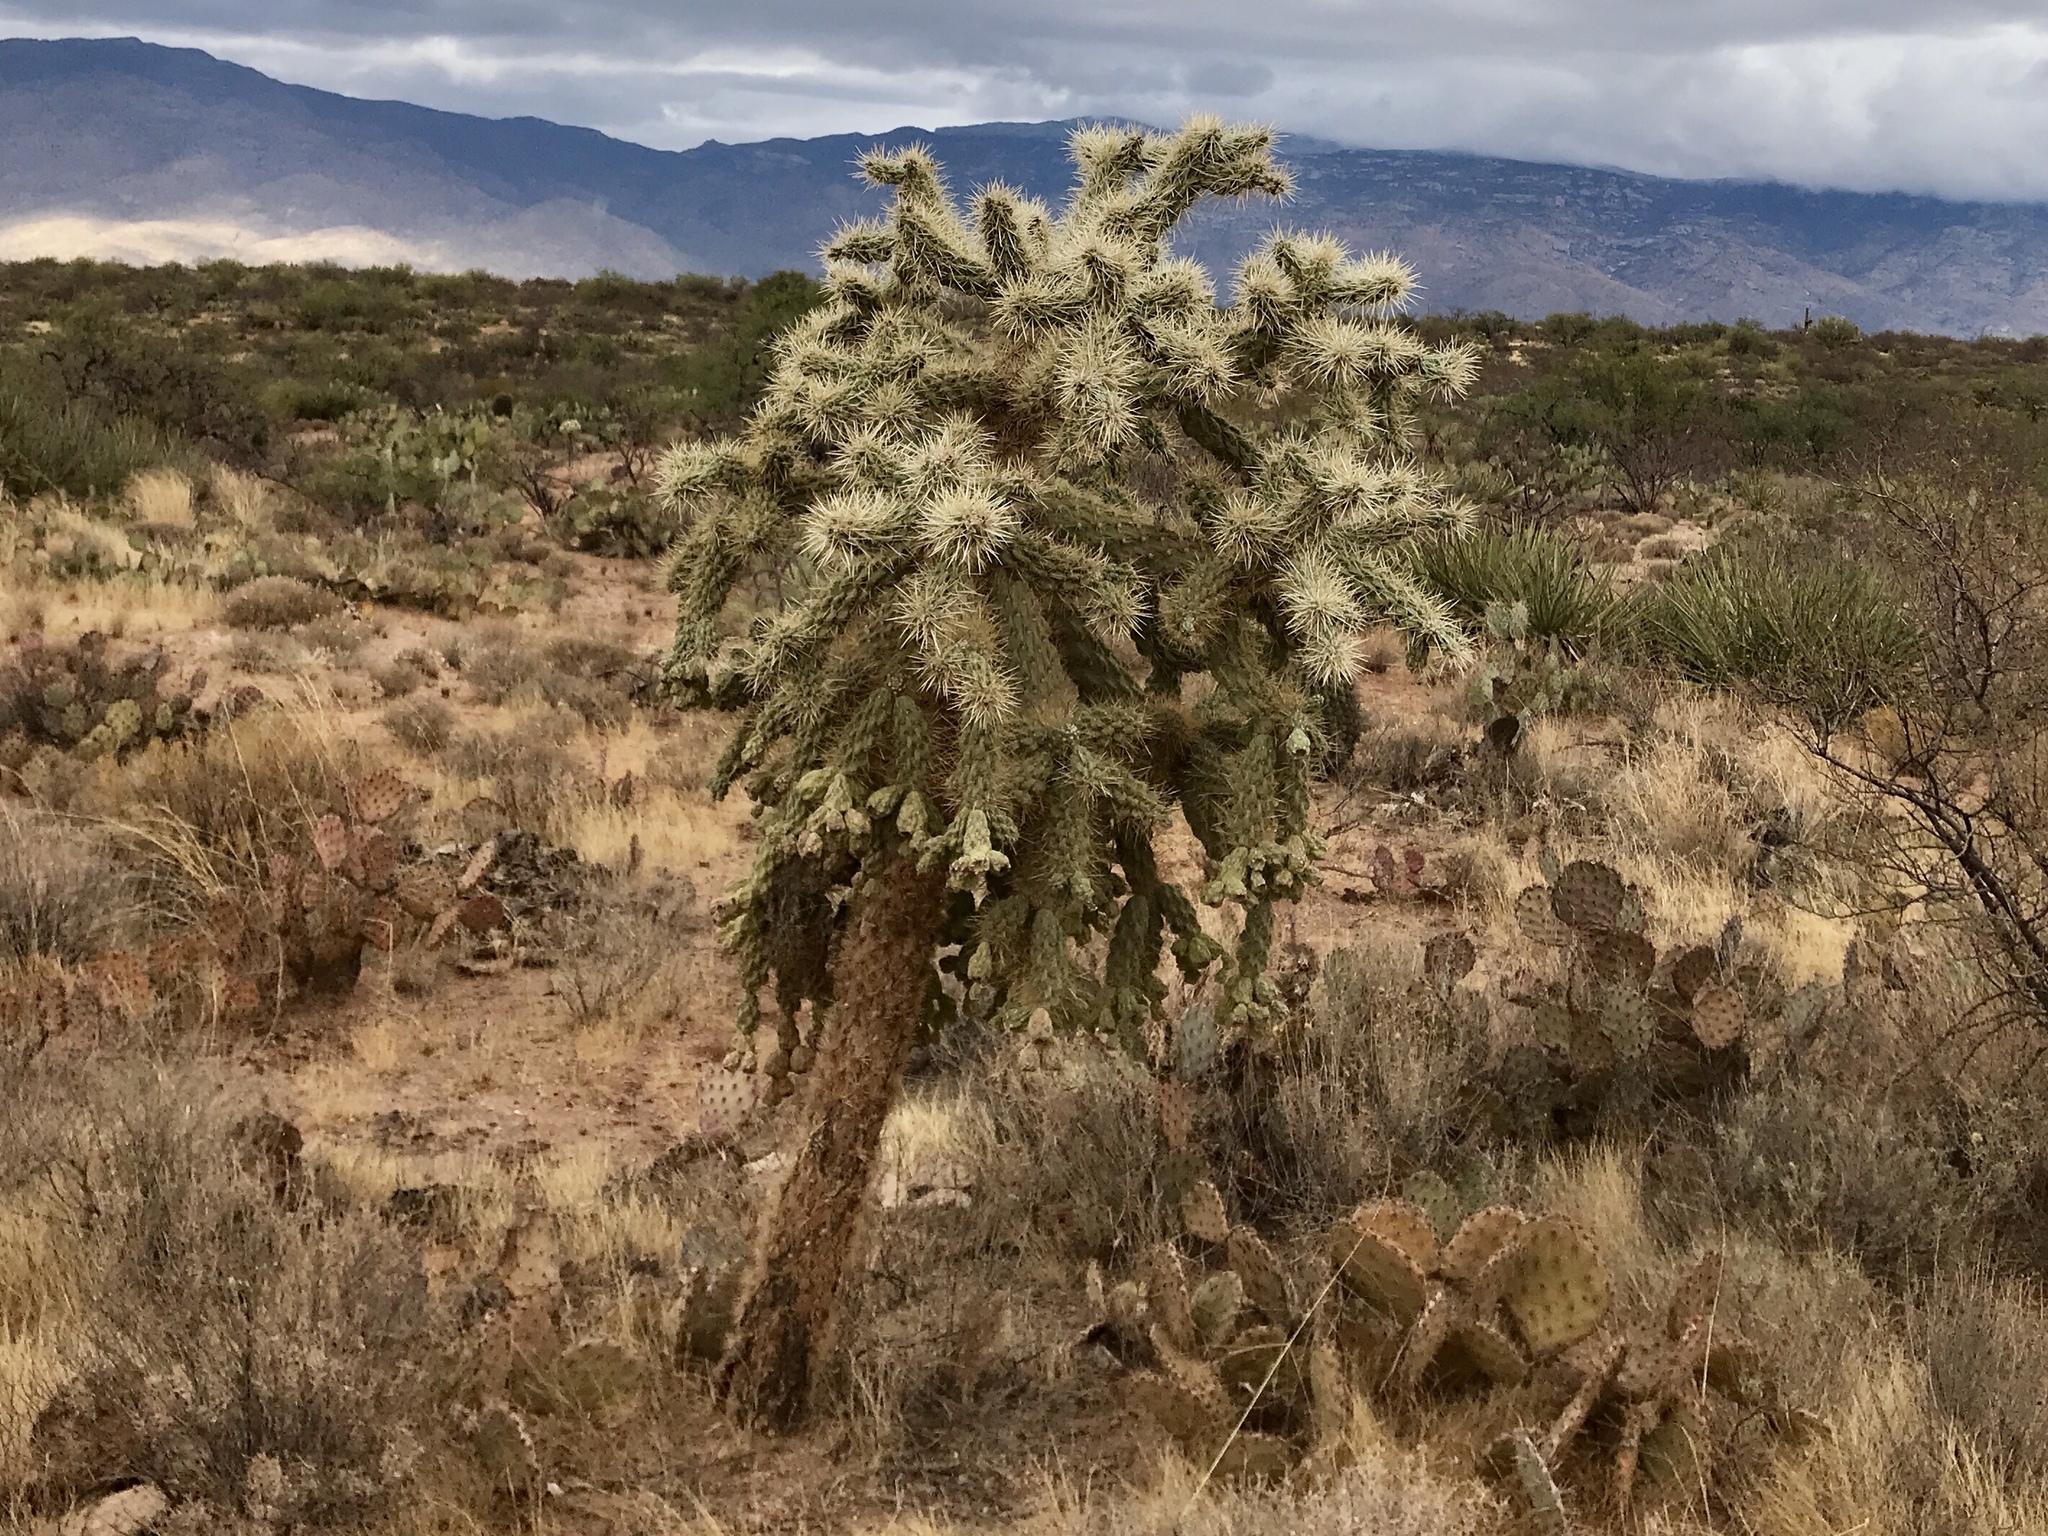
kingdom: Plantae
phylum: Tracheophyta
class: Magnoliopsida
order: Caryophyllales
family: Cactaceae
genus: Cylindropuntia
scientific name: Cylindropuntia fulgida
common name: Jumping cholla
